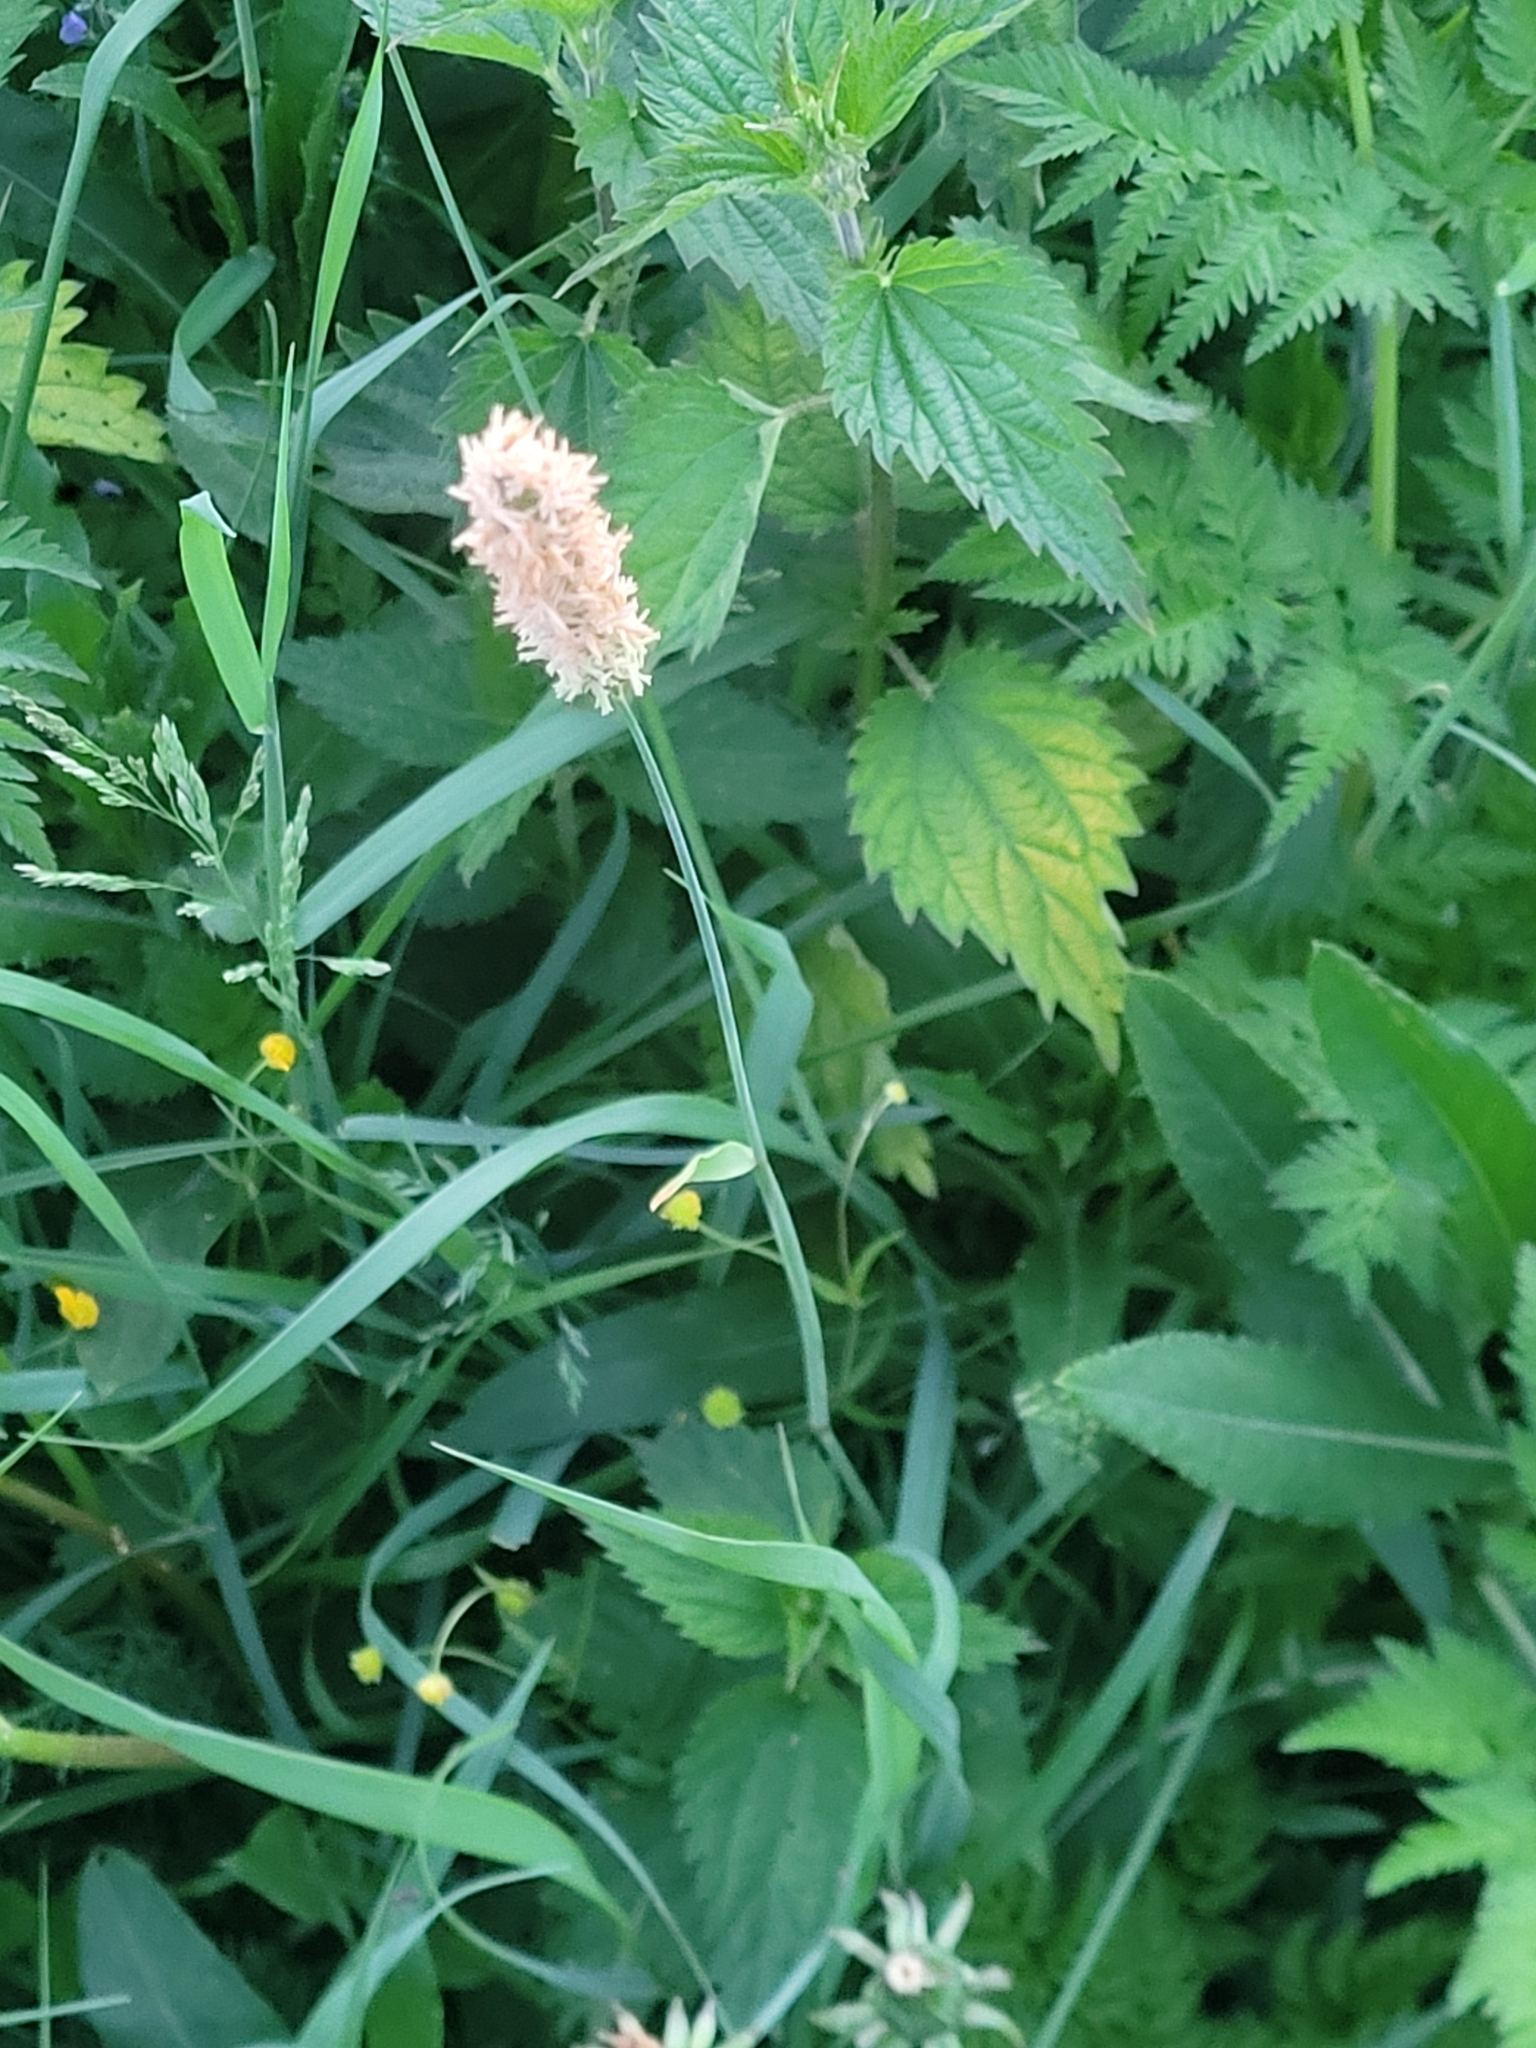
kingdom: Plantae
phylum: Tracheophyta
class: Liliopsida
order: Poales
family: Poaceae
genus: Alopecurus
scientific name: Alopecurus pratensis
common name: Meadow foxtail
